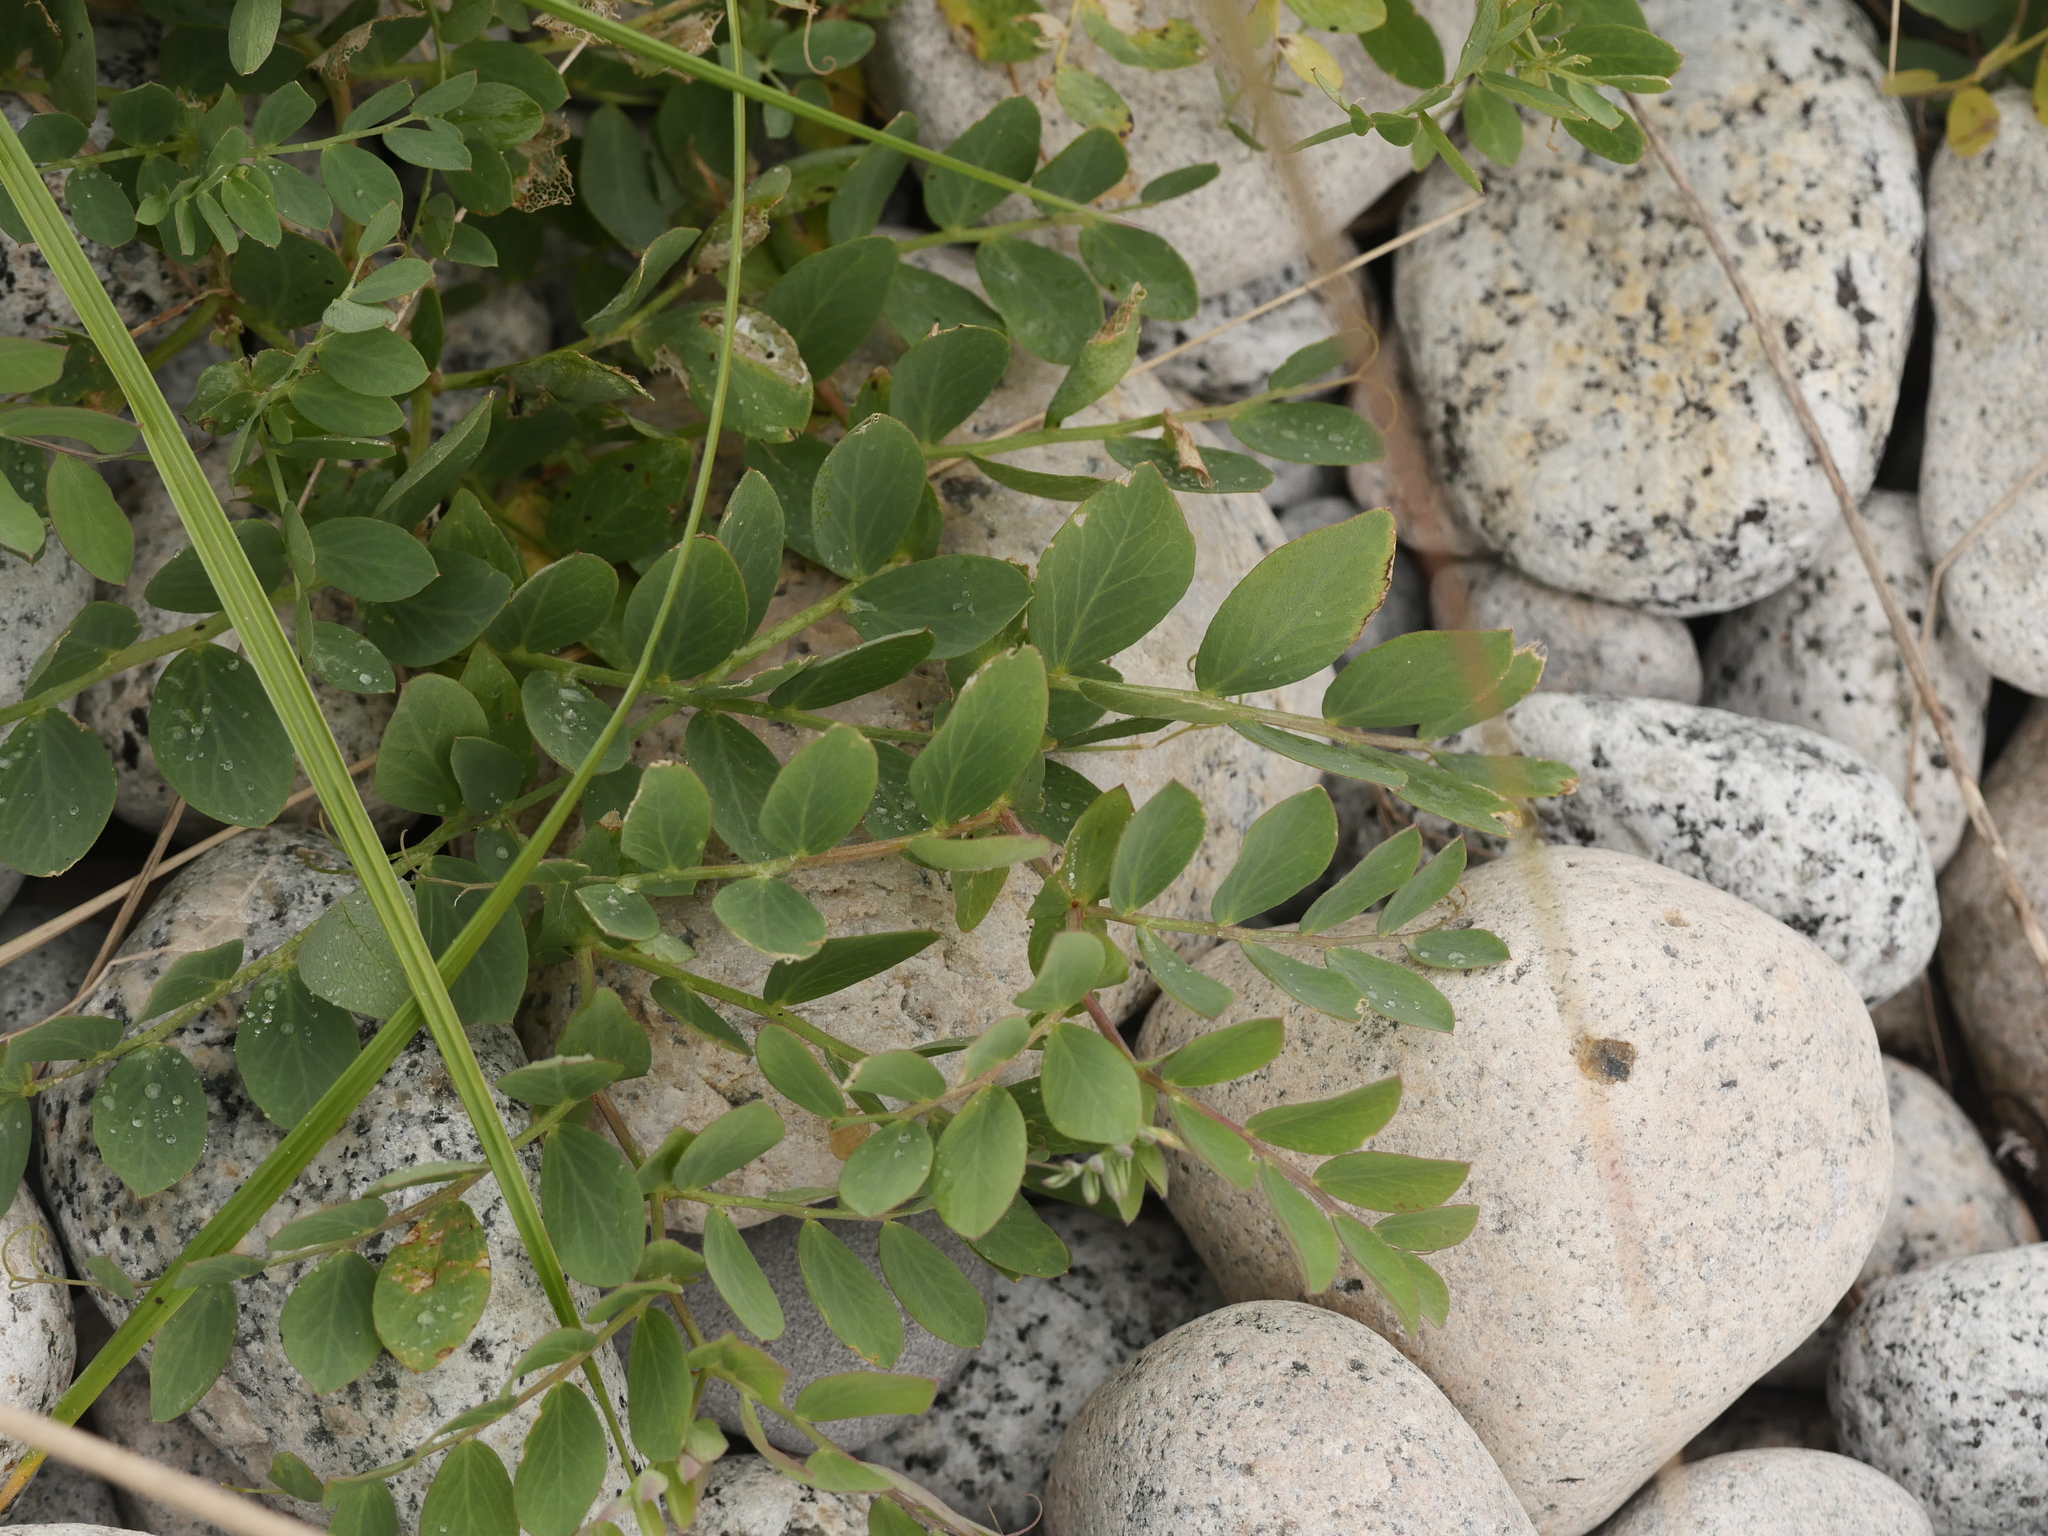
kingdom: Plantae
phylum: Tracheophyta
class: Magnoliopsida
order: Fabales
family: Fabaceae
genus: Lathyrus
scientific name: Lathyrus japonicus
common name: Sea pea
